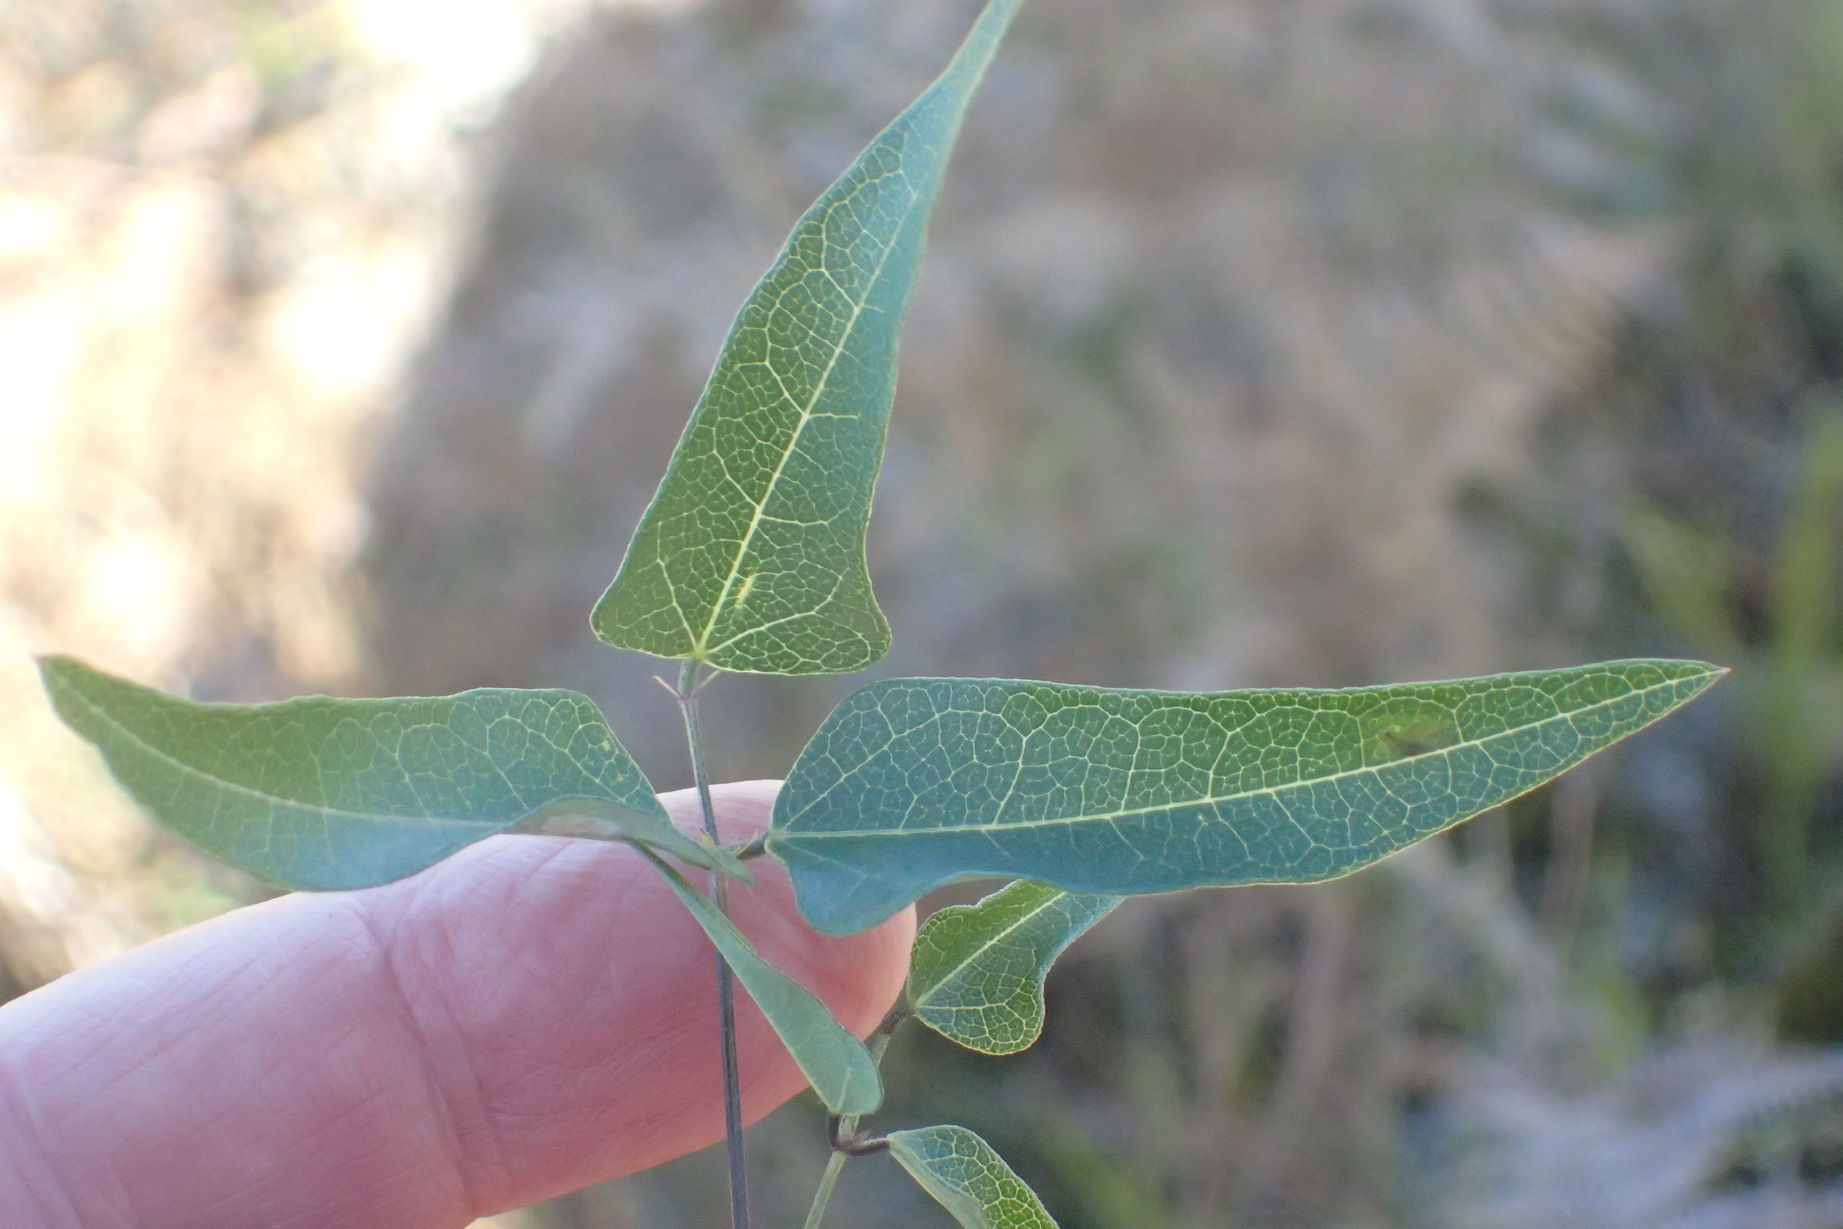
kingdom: Plantae
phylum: Tracheophyta
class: Magnoliopsida
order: Fabales
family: Fabaceae
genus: Dipogon
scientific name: Dipogon lignosus
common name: Okie bean
